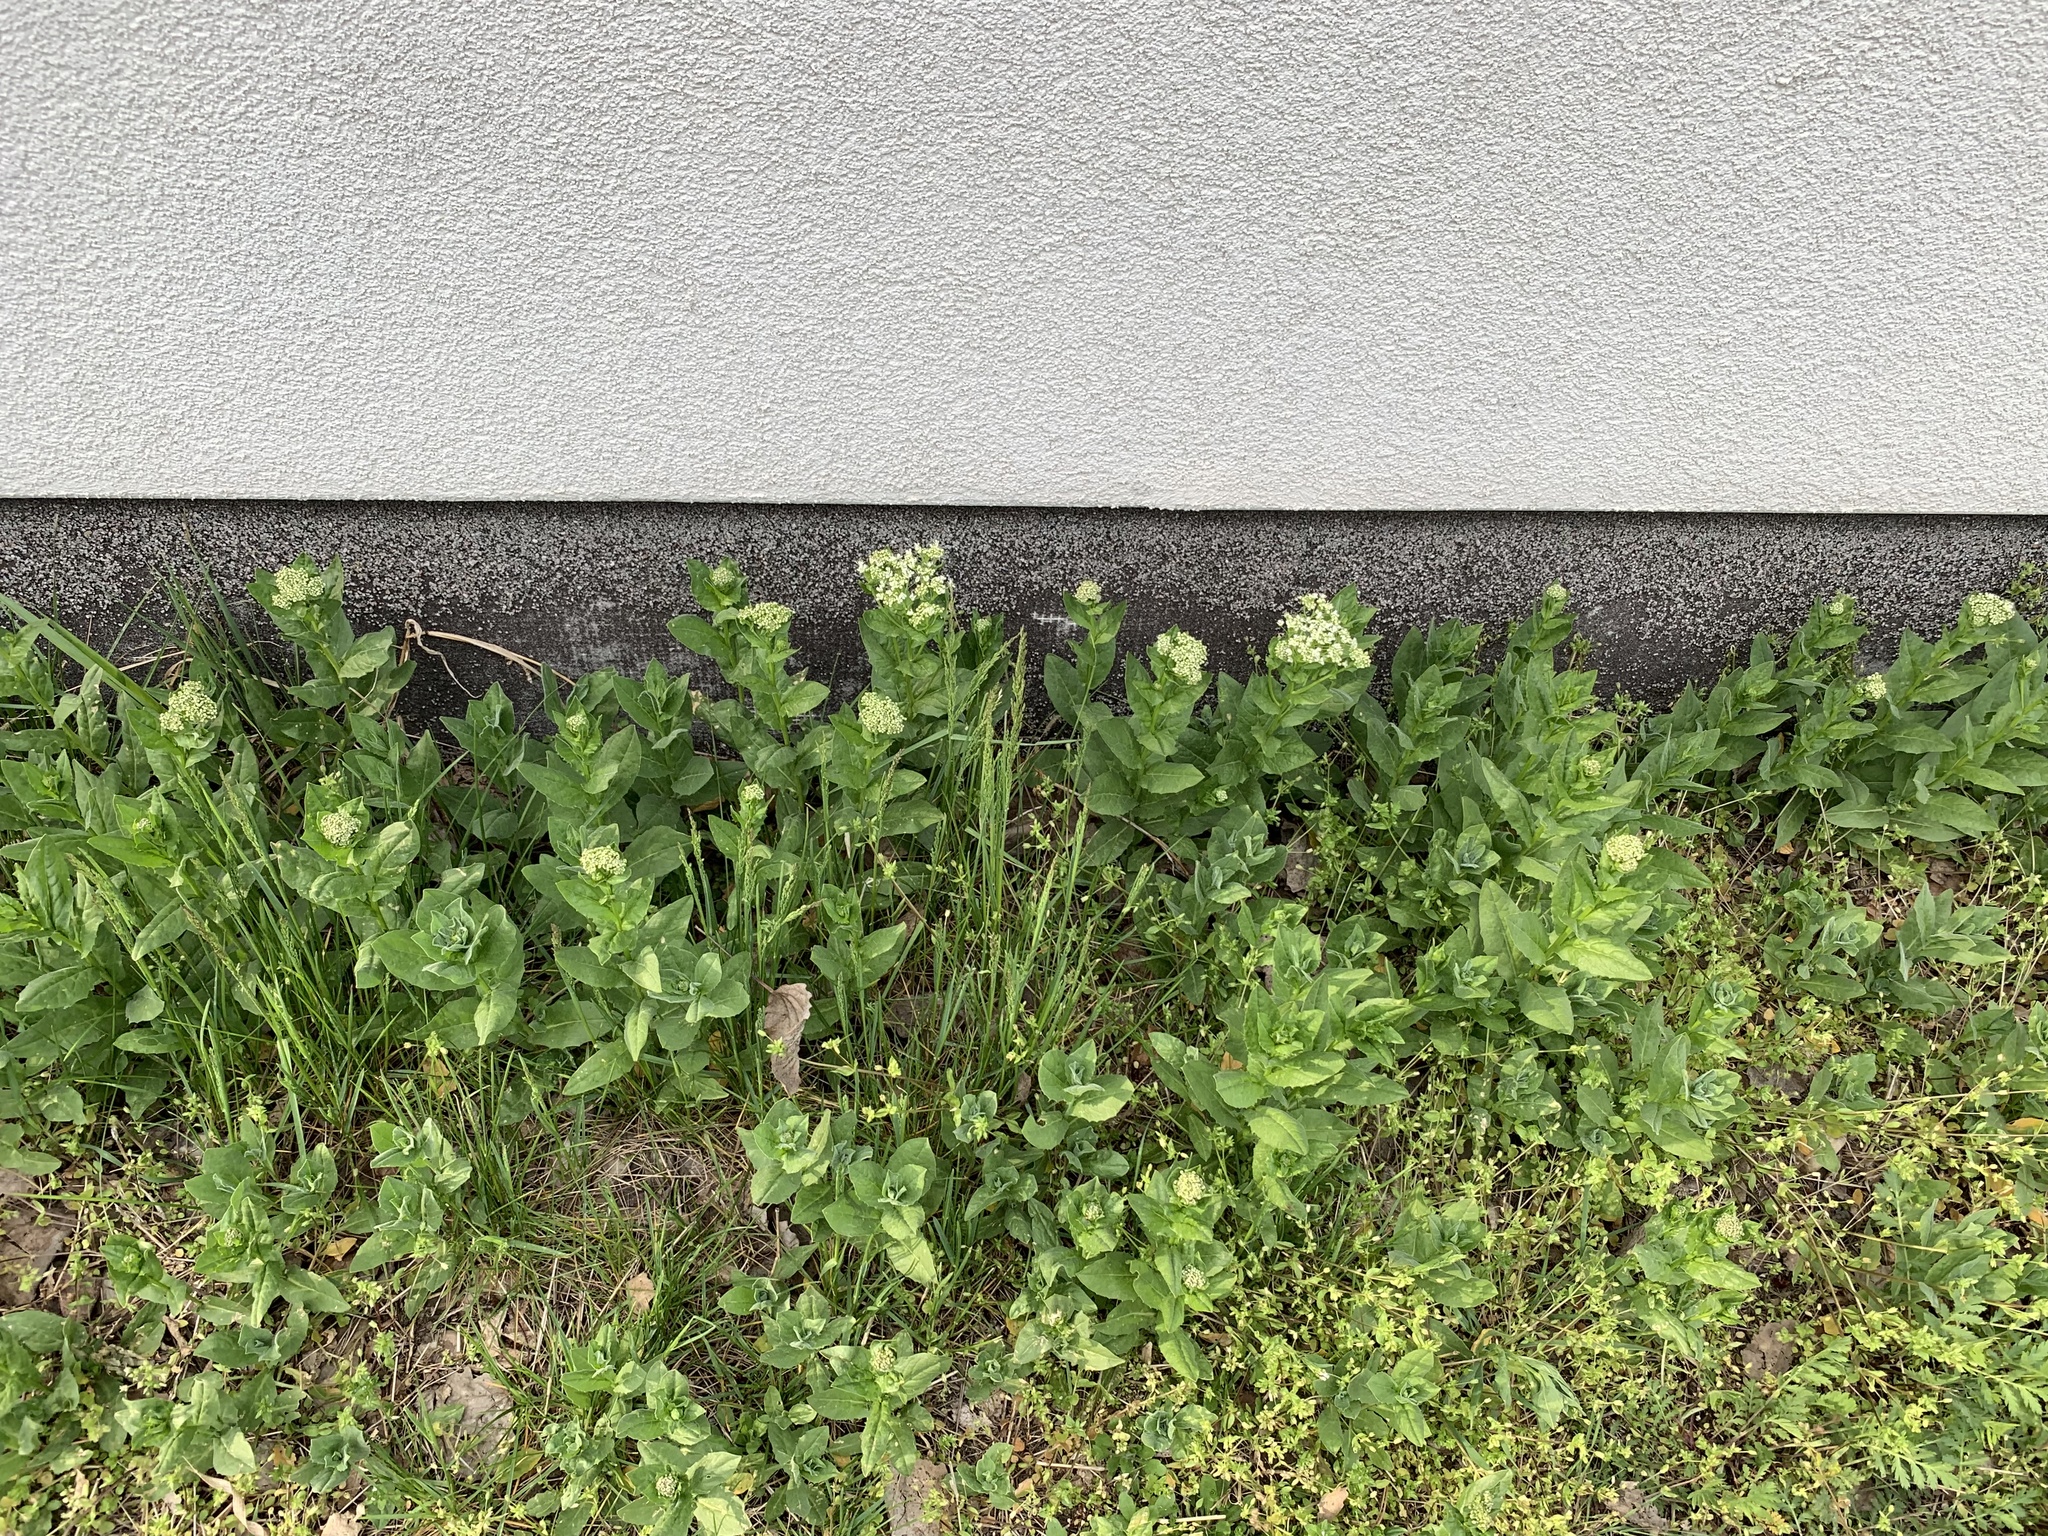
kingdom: Plantae
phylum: Tracheophyta
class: Magnoliopsida
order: Brassicales
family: Brassicaceae
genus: Lepidium
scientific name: Lepidium draba
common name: Hoary cress
